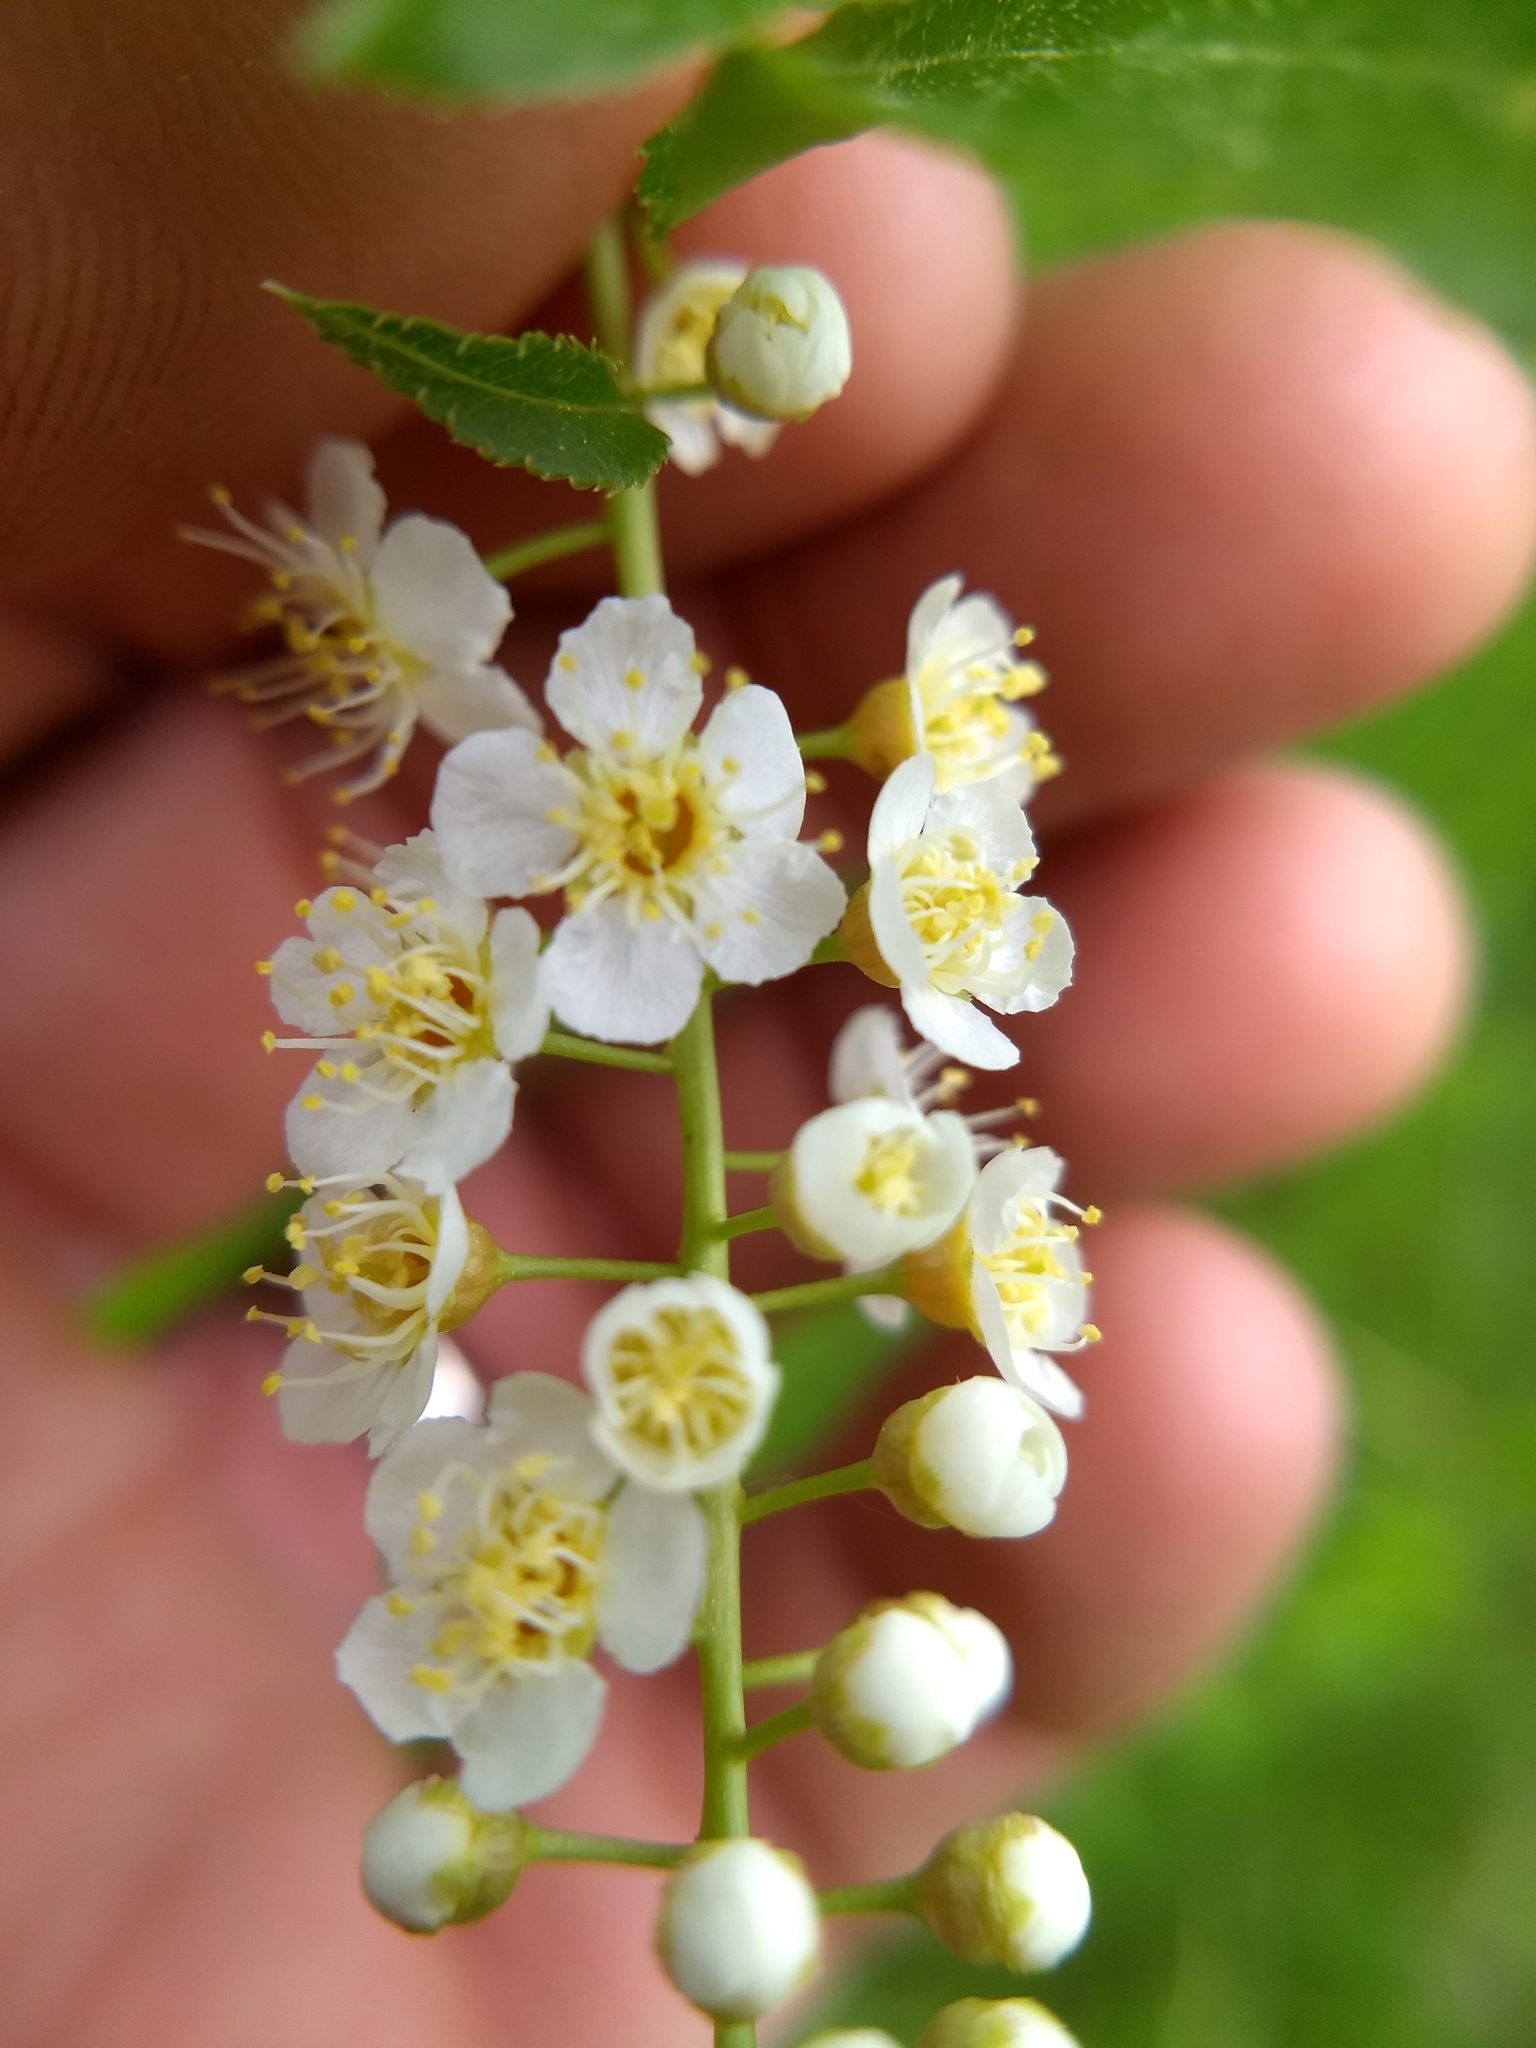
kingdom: Plantae
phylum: Tracheophyta
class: Magnoliopsida
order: Rosales
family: Rosaceae
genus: Prunus
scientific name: Prunus virginiana
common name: Chokecherry
